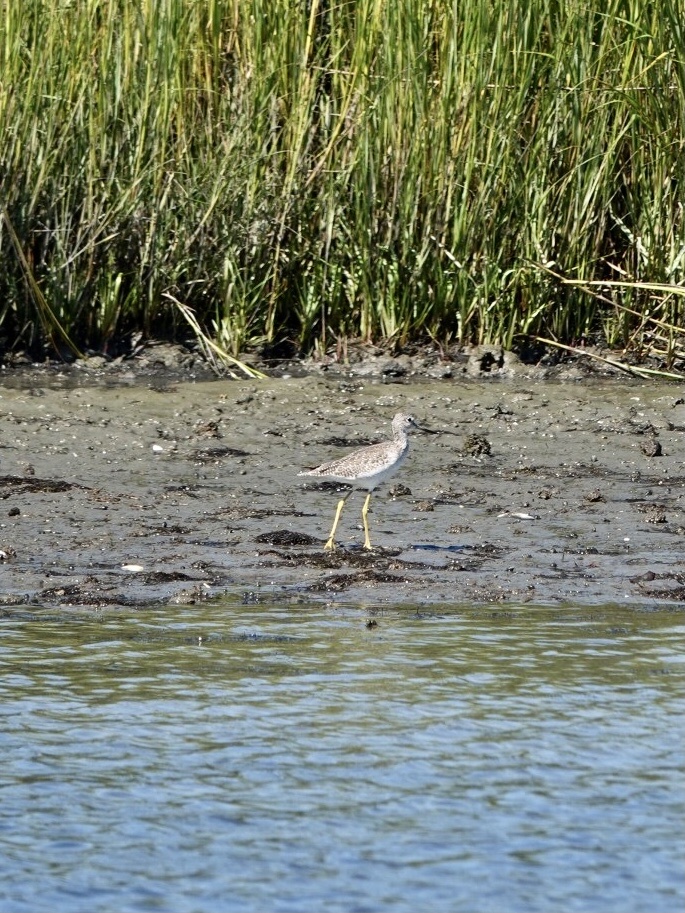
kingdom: Animalia
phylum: Chordata
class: Aves
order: Charadriiformes
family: Scolopacidae
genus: Tringa
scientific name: Tringa melanoleuca
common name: Greater yellowlegs
